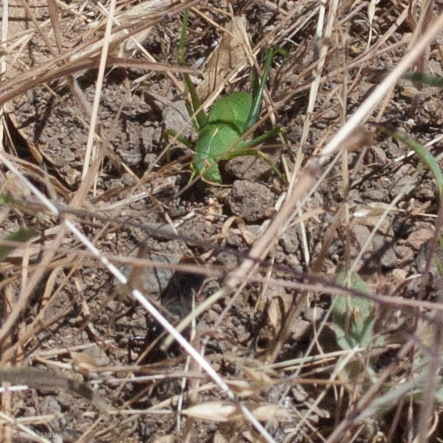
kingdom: Animalia
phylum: Arthropoda
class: Insecta
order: Hymenoptera
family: Sphecidae
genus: Sphex
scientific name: Sphex lucae
